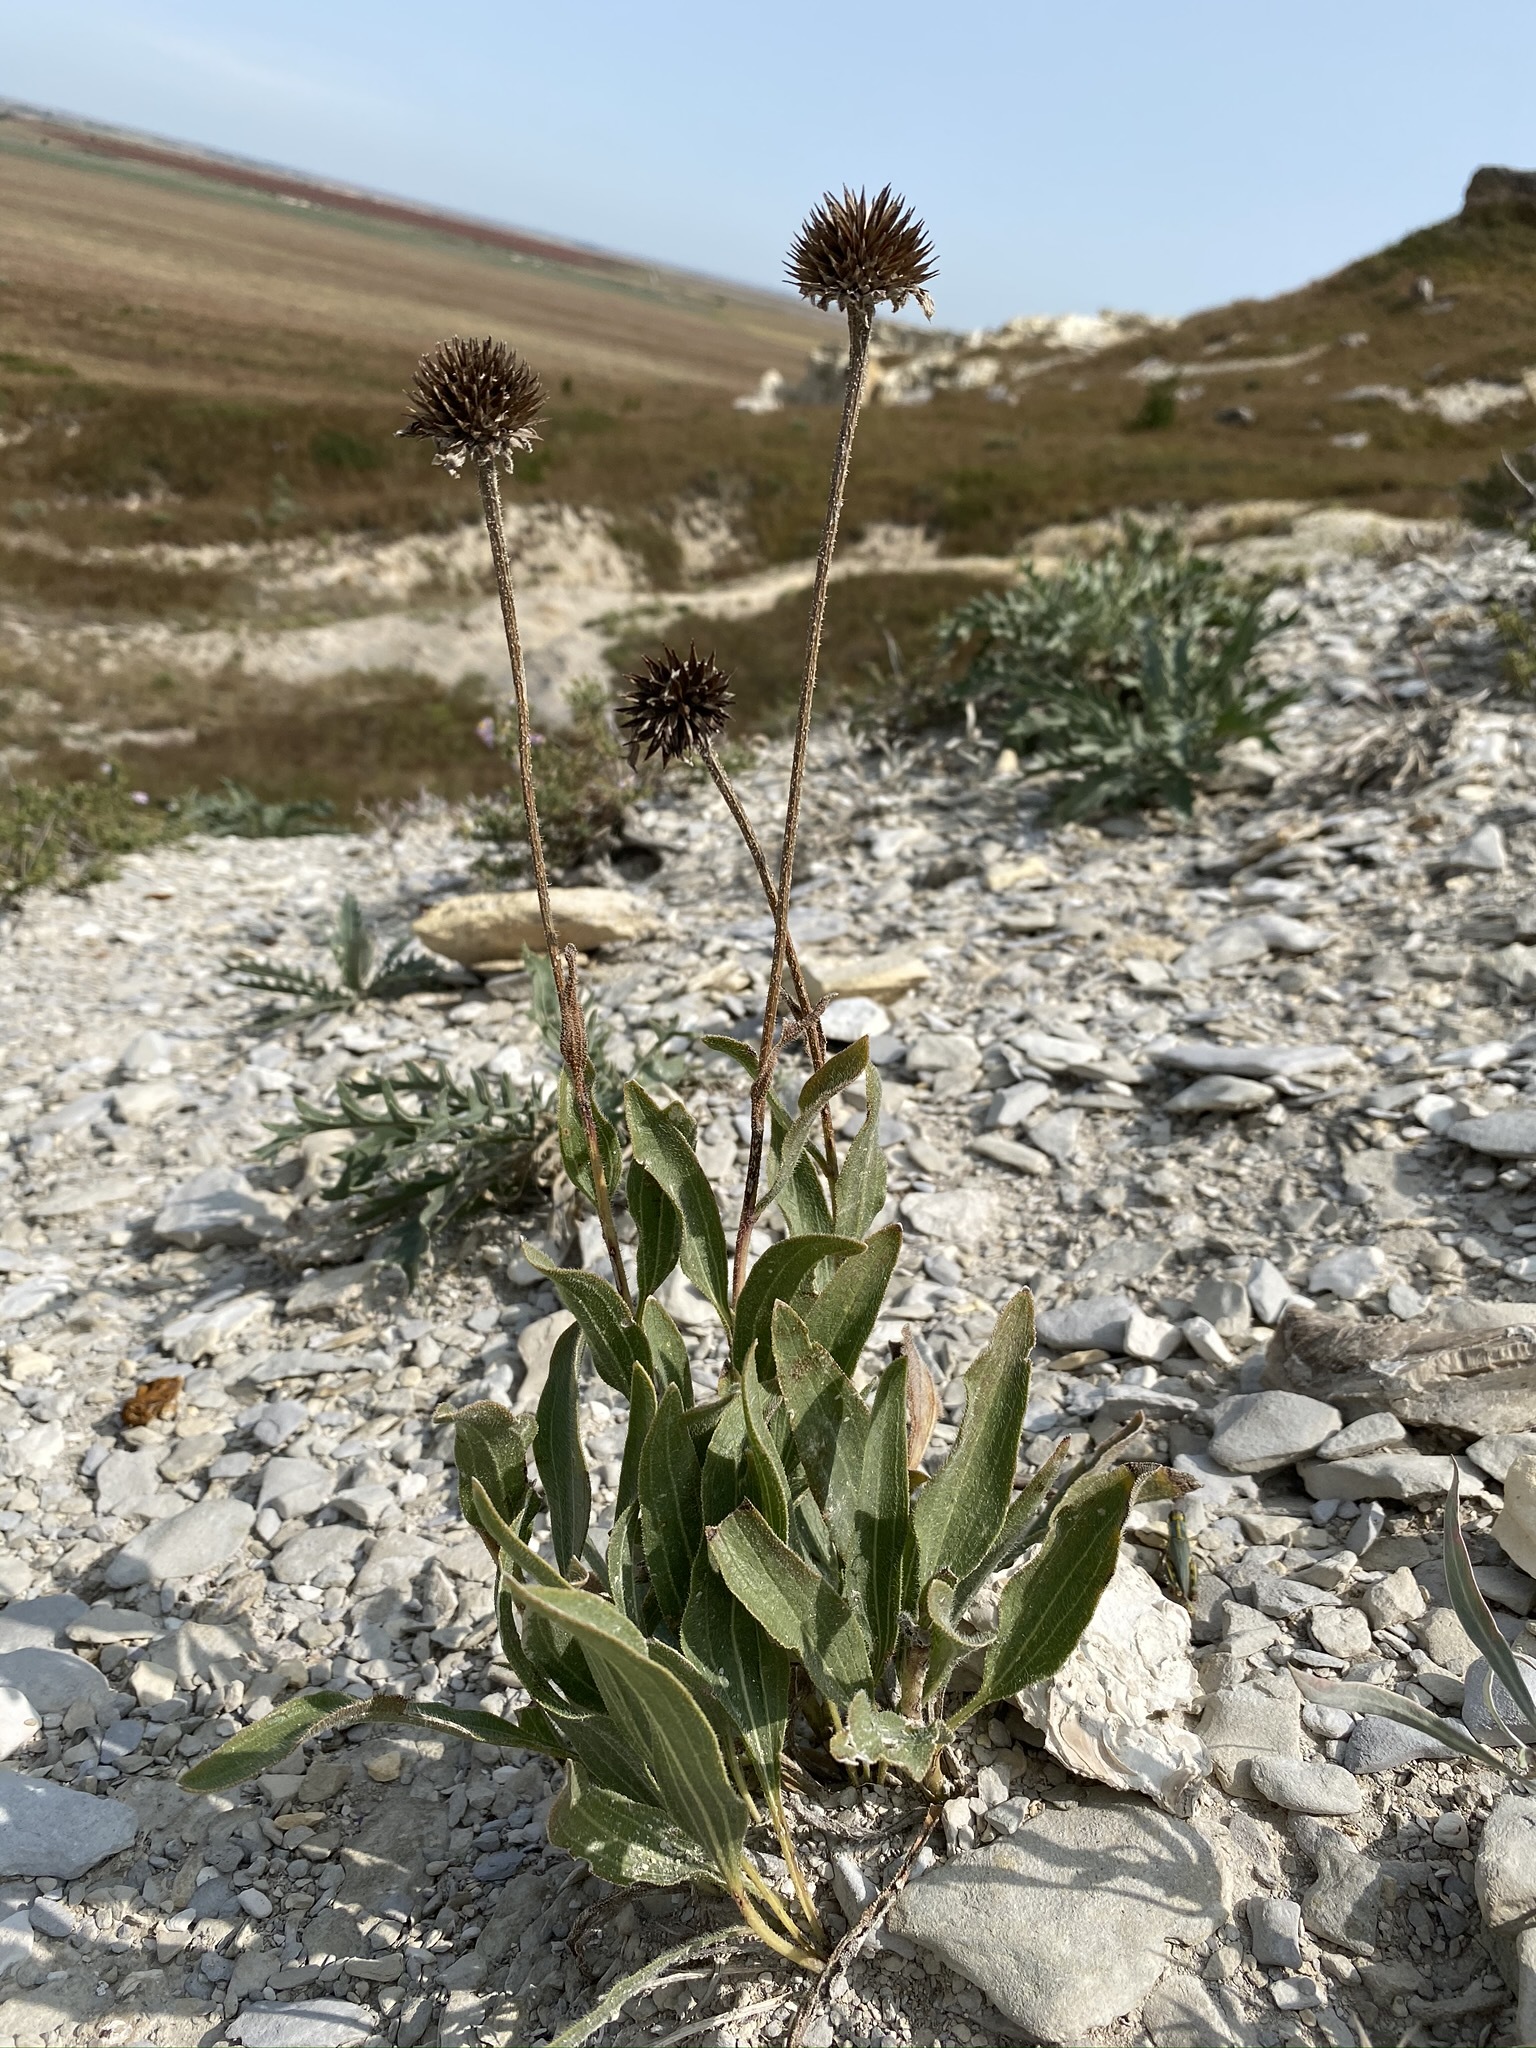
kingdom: Plantae
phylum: Tracheophyta
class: Magnoliopsida
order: Asterales
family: Asteraceae
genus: Echinacea
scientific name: Echinacea angustifolia
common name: Black-sampson echinacea
